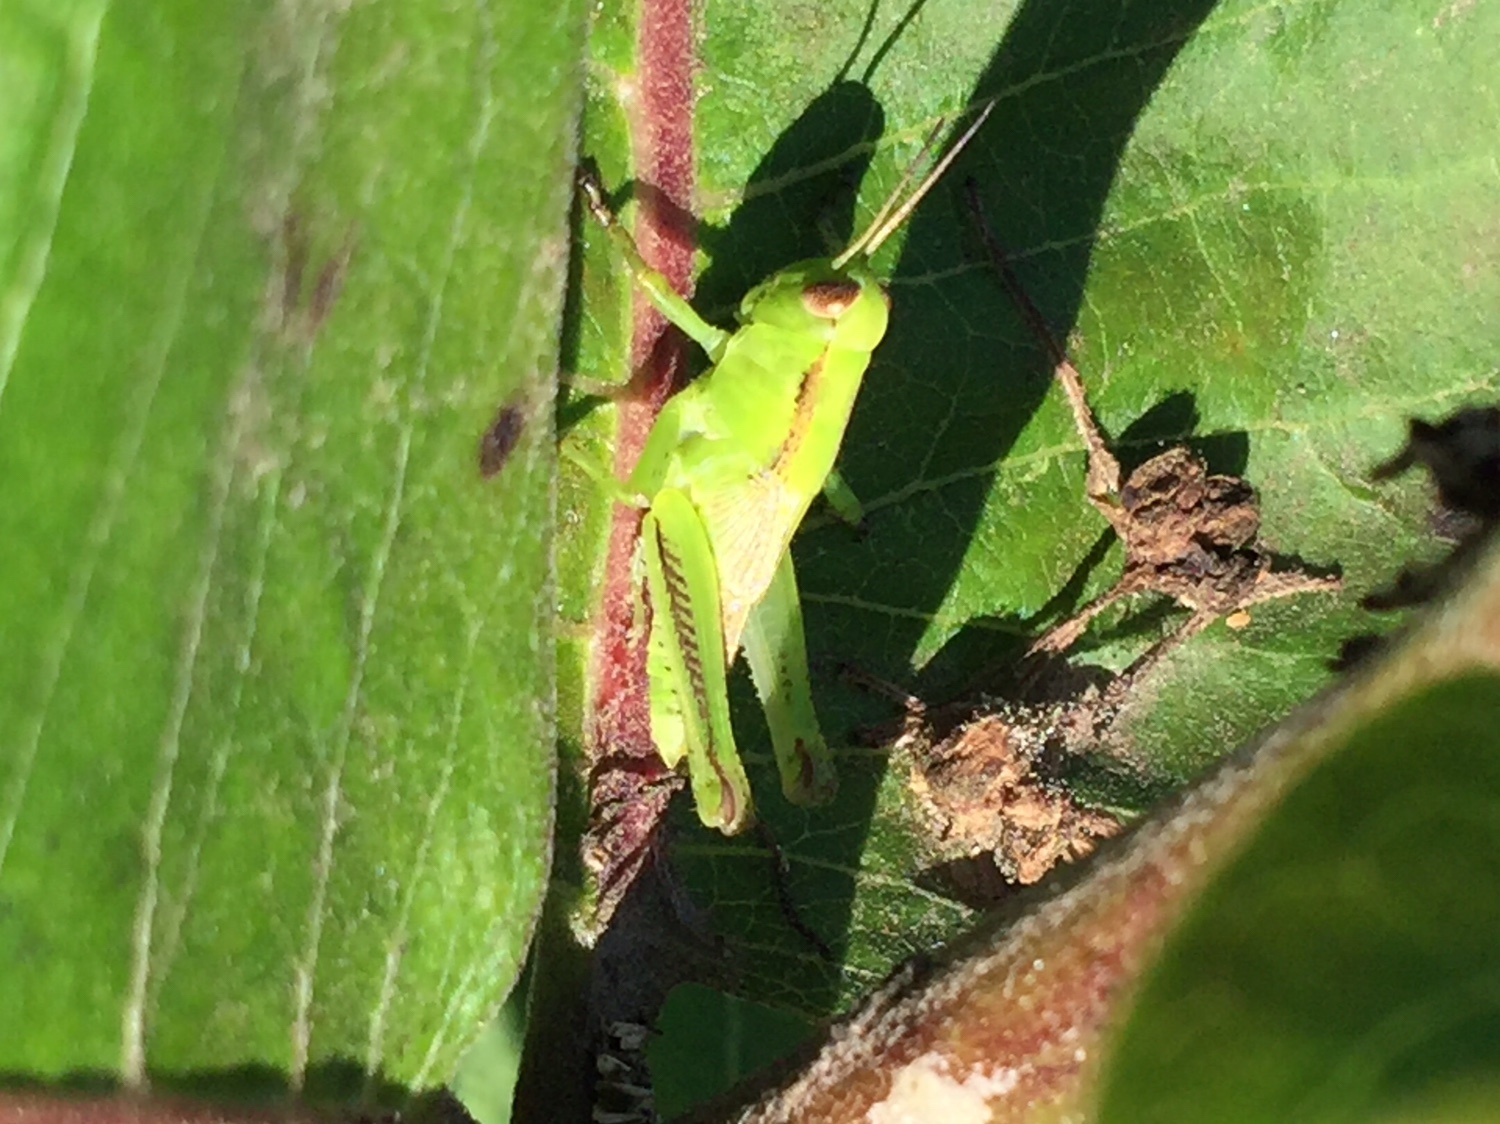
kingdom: Animalia
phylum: Arthropoda
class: Insecta
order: Orthoptera
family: Acrididae
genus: Melanoplus
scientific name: Melanoplus bivittatus
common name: Two-striped grasshopper
